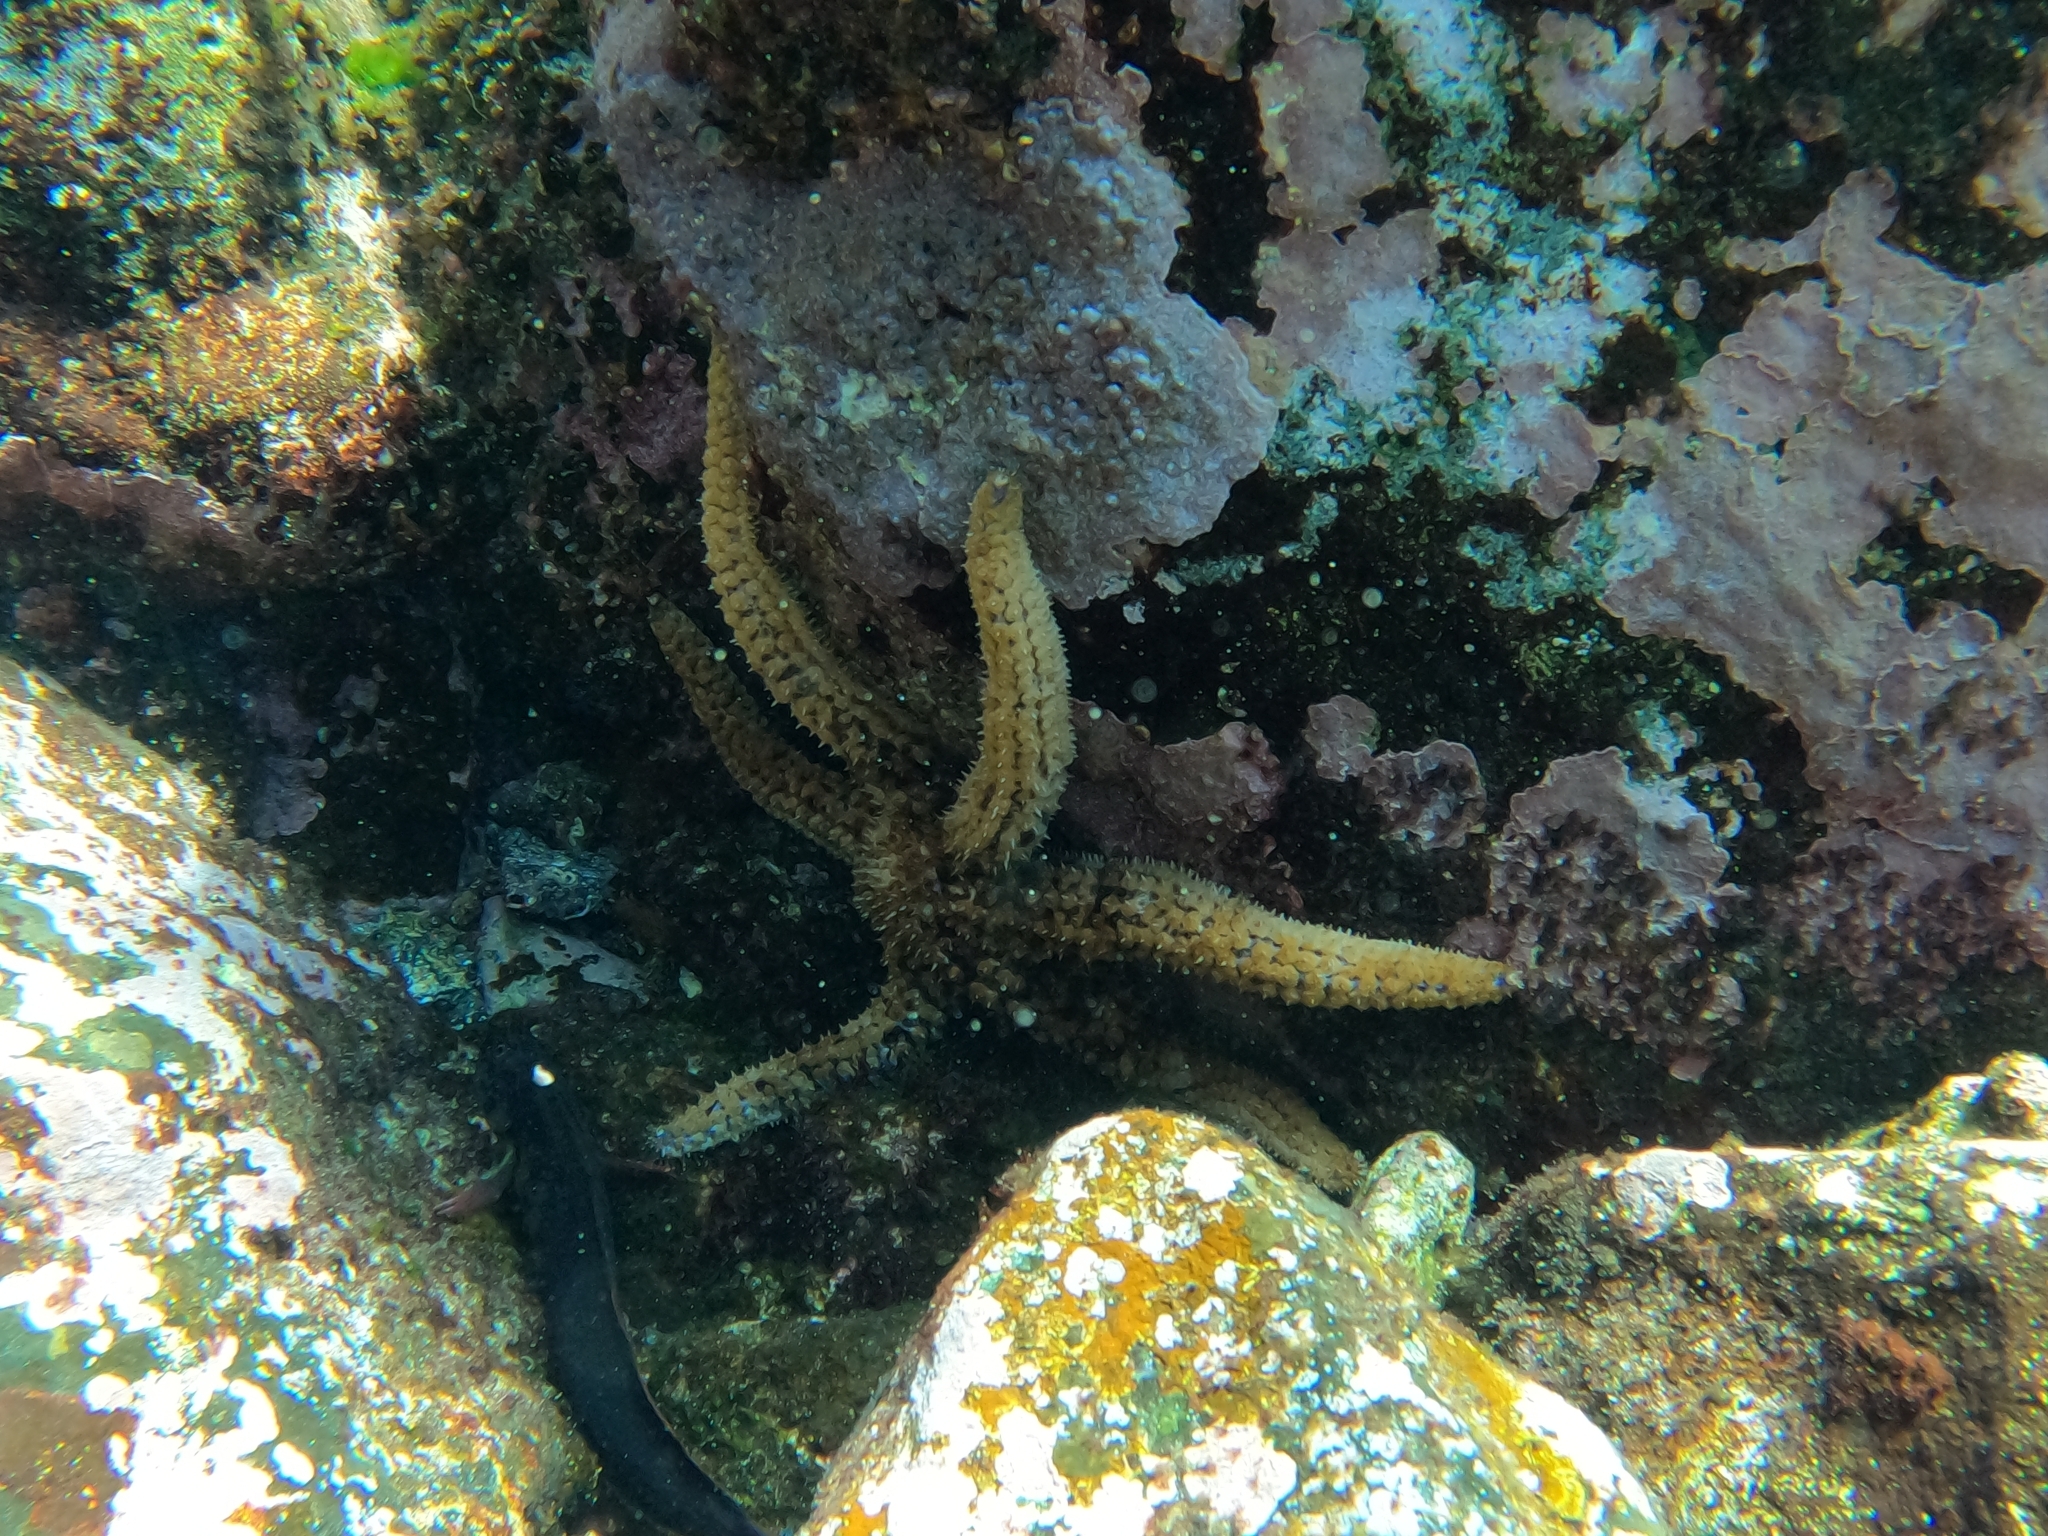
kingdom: Animalia
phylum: Echinodermata
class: Asteroidea
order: Forcipulatida
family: Asteriidae
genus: Coscinasterias
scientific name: Coscinasterias tenuispina
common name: Blue spiny starfish
